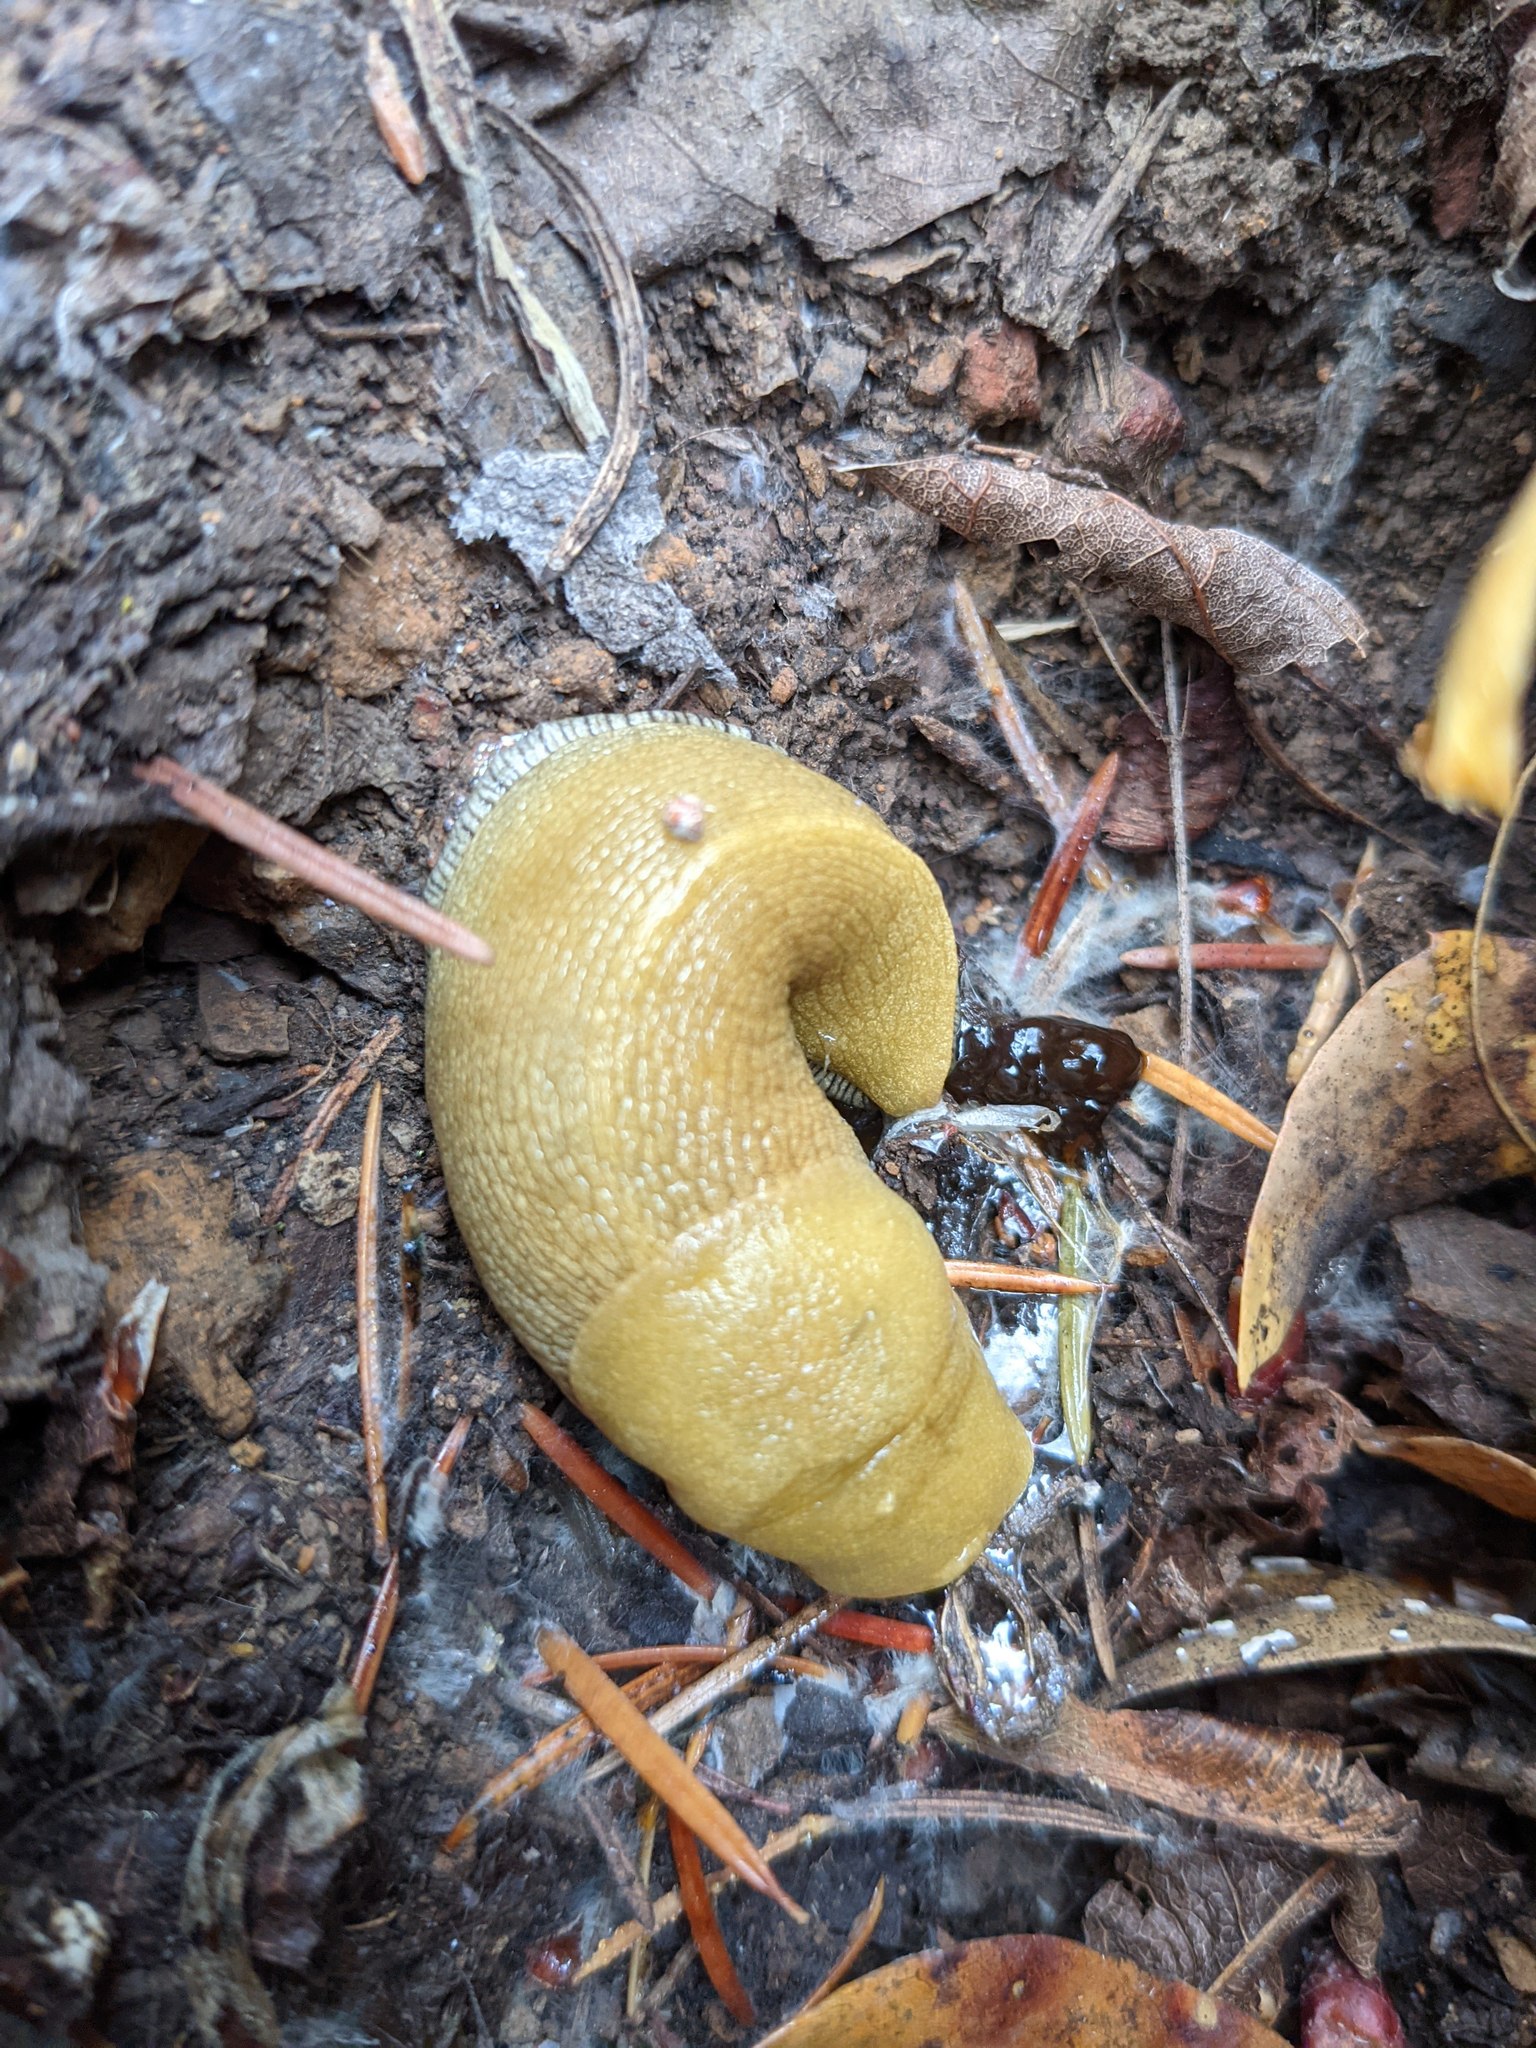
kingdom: Animalia
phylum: Mollusca
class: Gastropoda
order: Stylommatophora
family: Ariolimacidae
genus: Ariolimax
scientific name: Ariolimax stramineus
